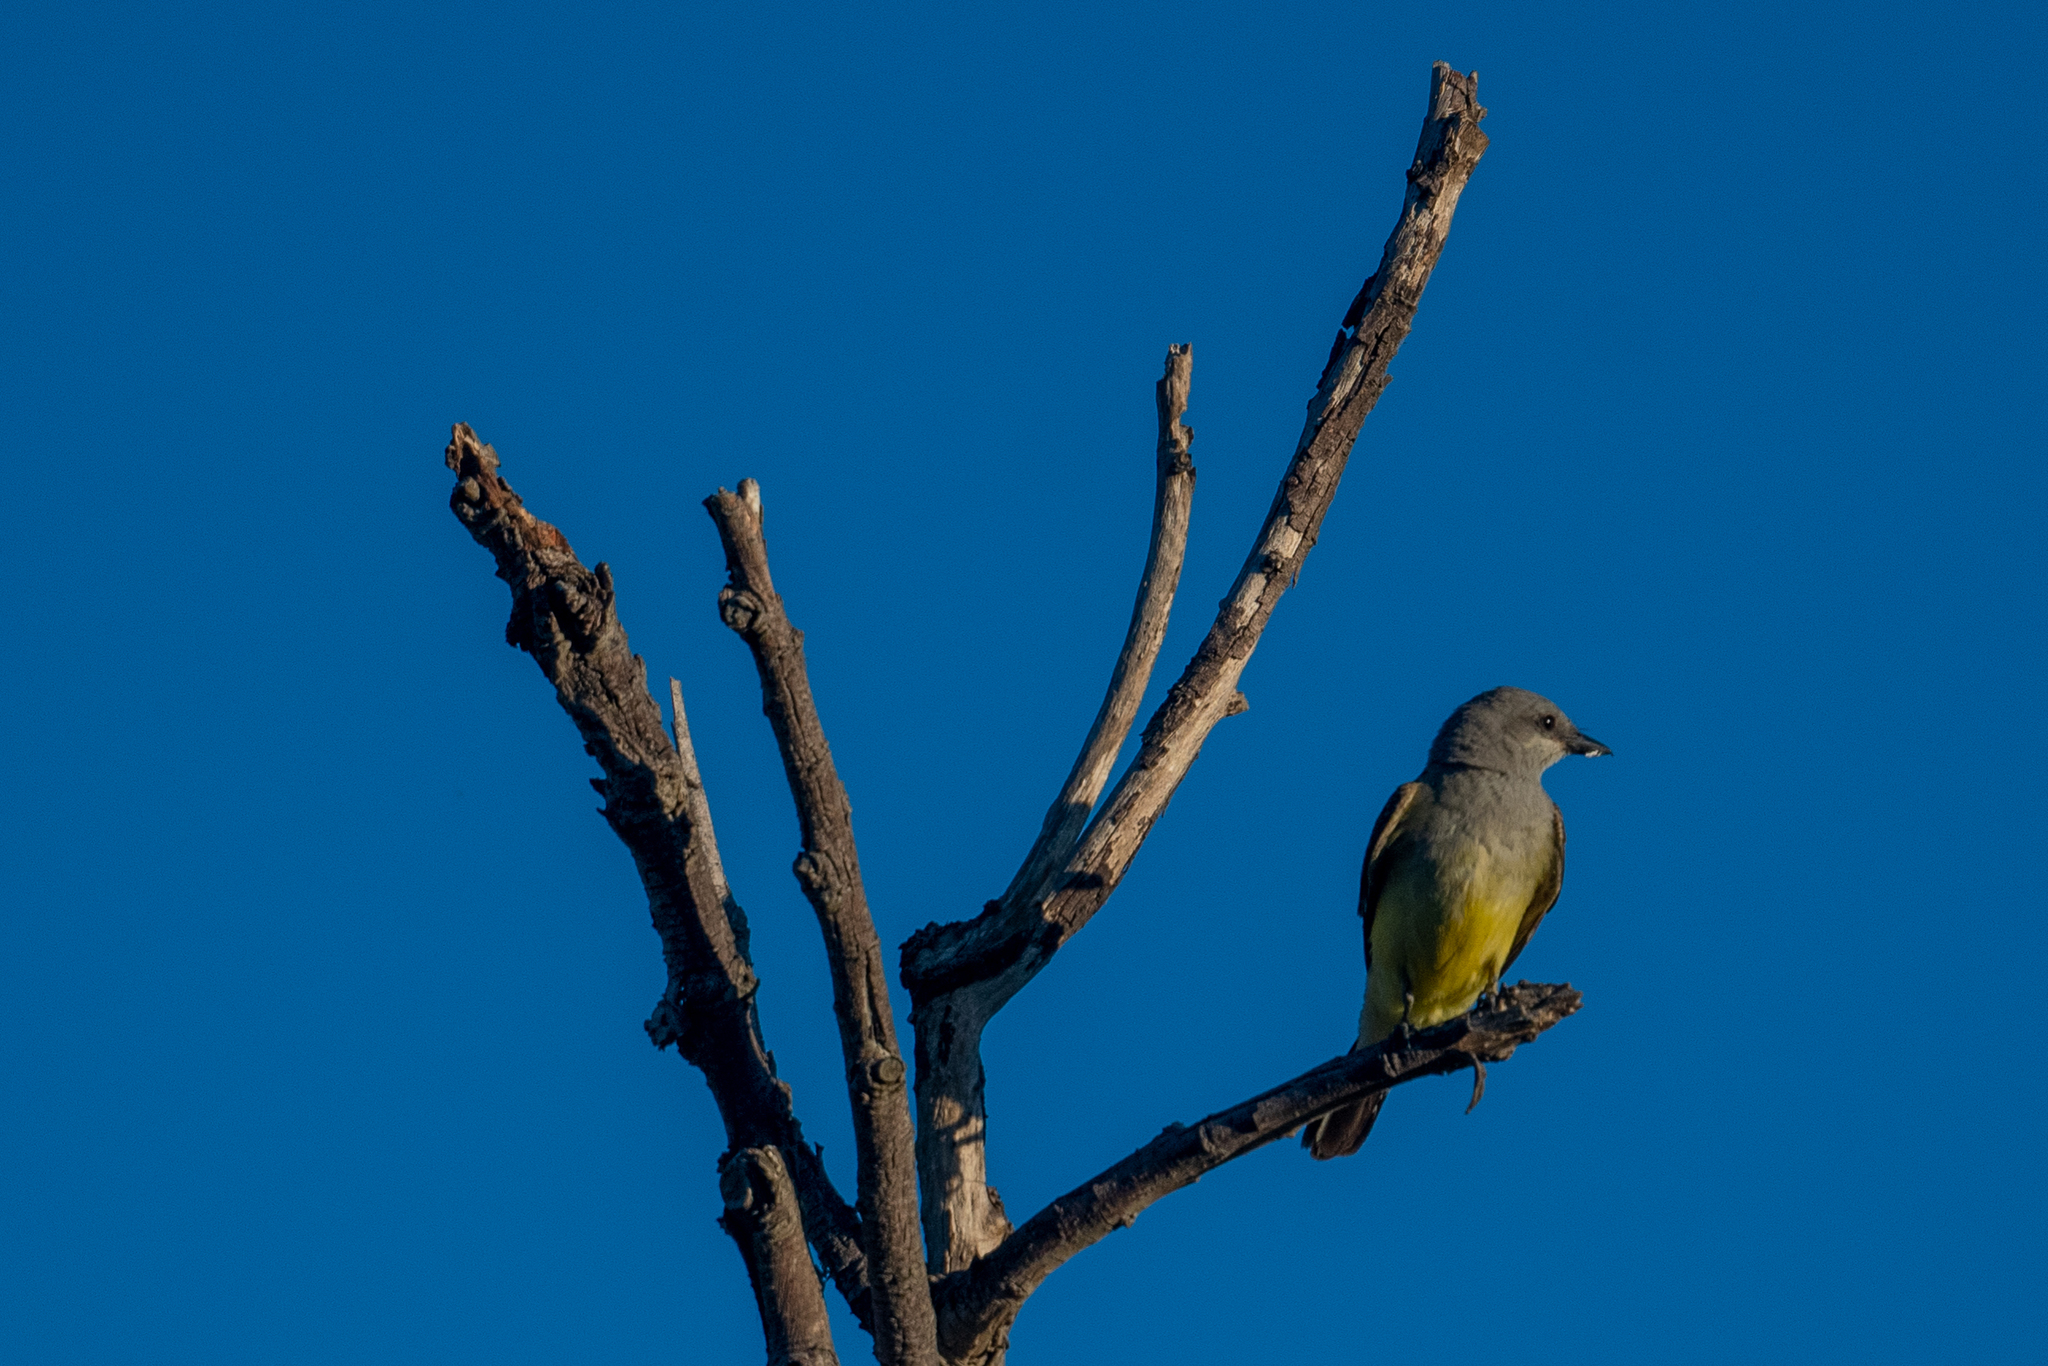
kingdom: Animalia
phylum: Chordata
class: Aves
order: Passeriformes
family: Tyrannidae
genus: Tyrannus
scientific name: Tyrannus verticalis
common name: Western kingbird
